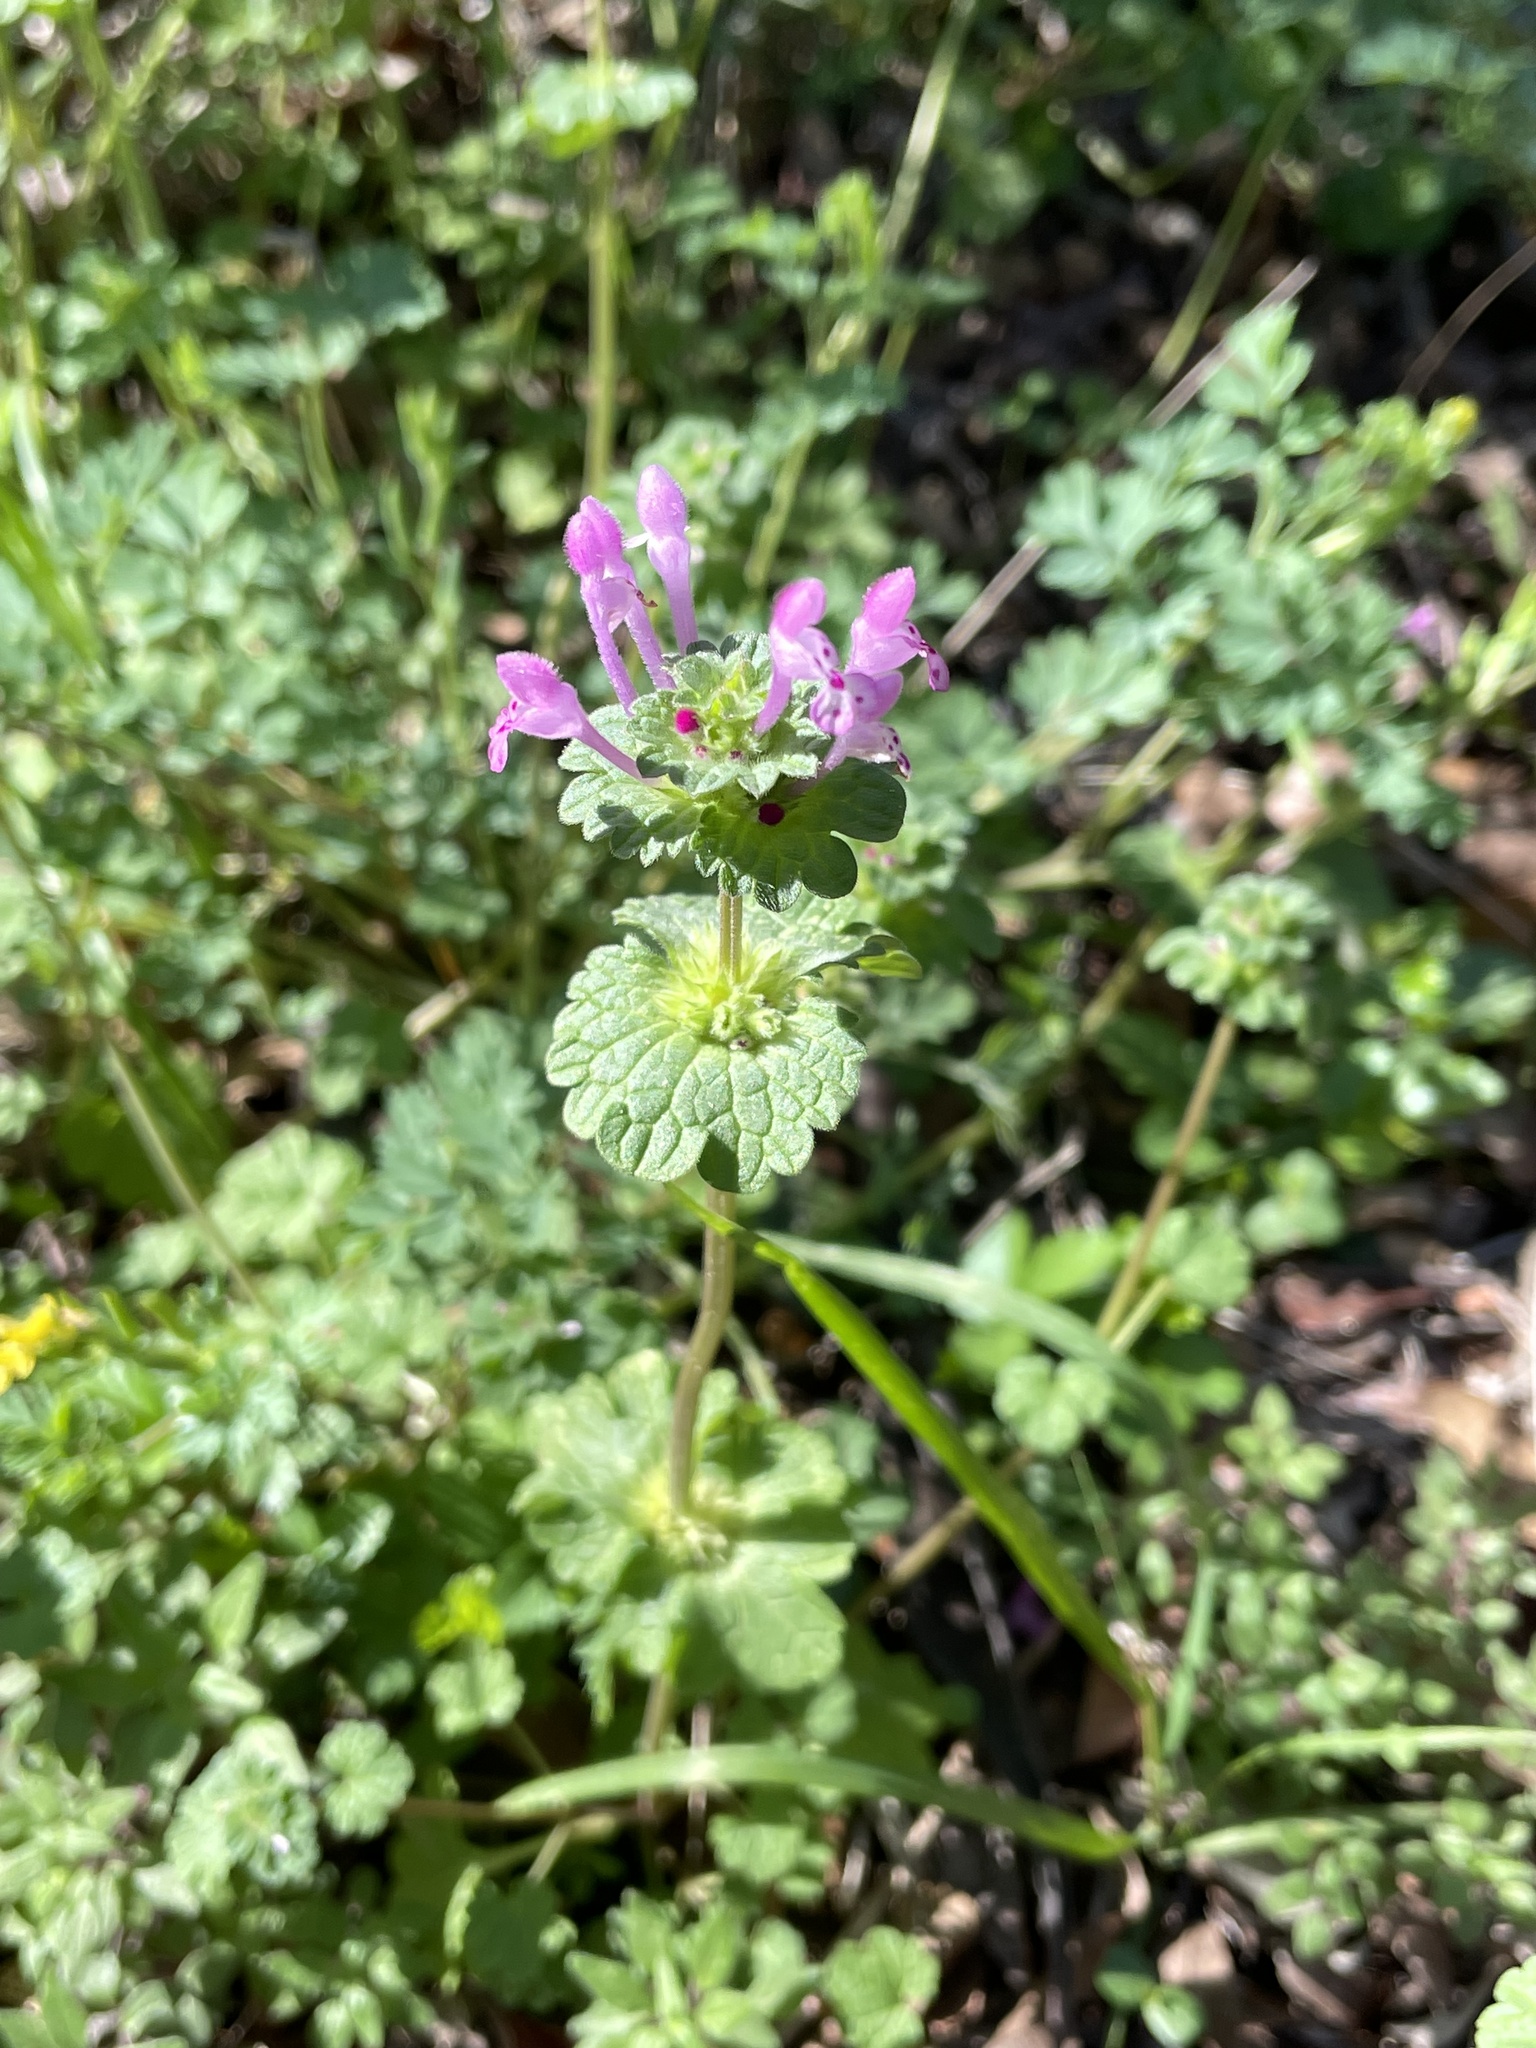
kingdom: Plantae
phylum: Tracheophyta
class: Magnoliopsida
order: Lamiales
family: Lamiaceae
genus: Lamium
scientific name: Lamium amplexicaule
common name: Henbit dead-nettle
